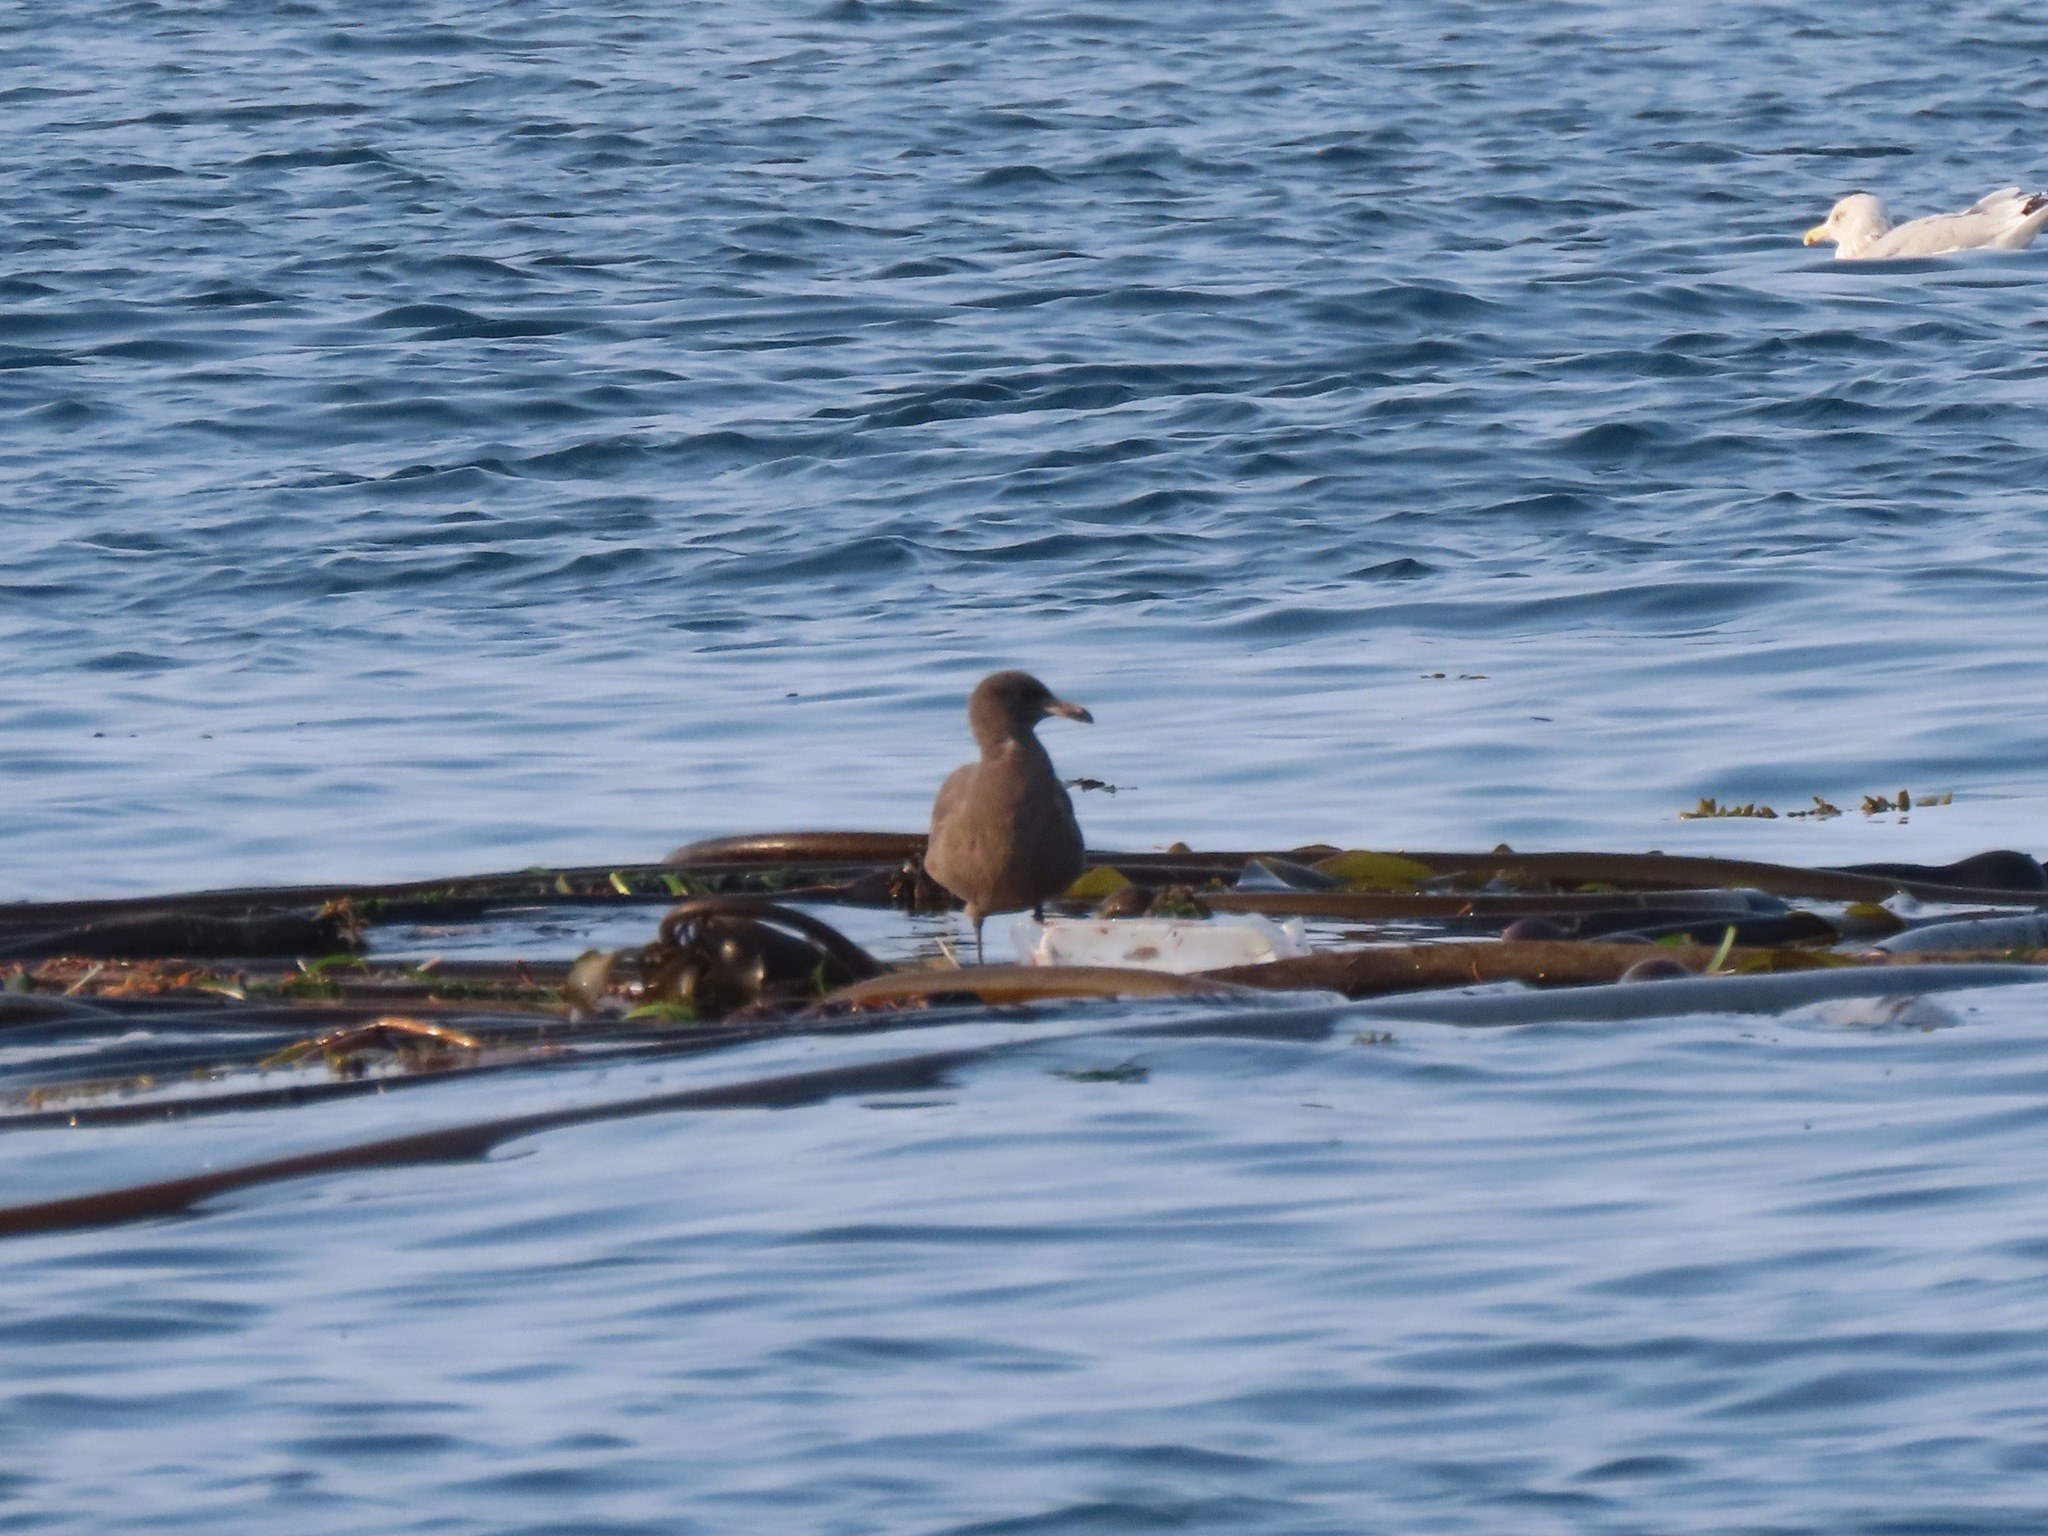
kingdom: Animalia
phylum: Chordata
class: Aves
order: Charadriiformes
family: Laridae
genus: Larus
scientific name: Larus heermanni
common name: Heermann's gull
